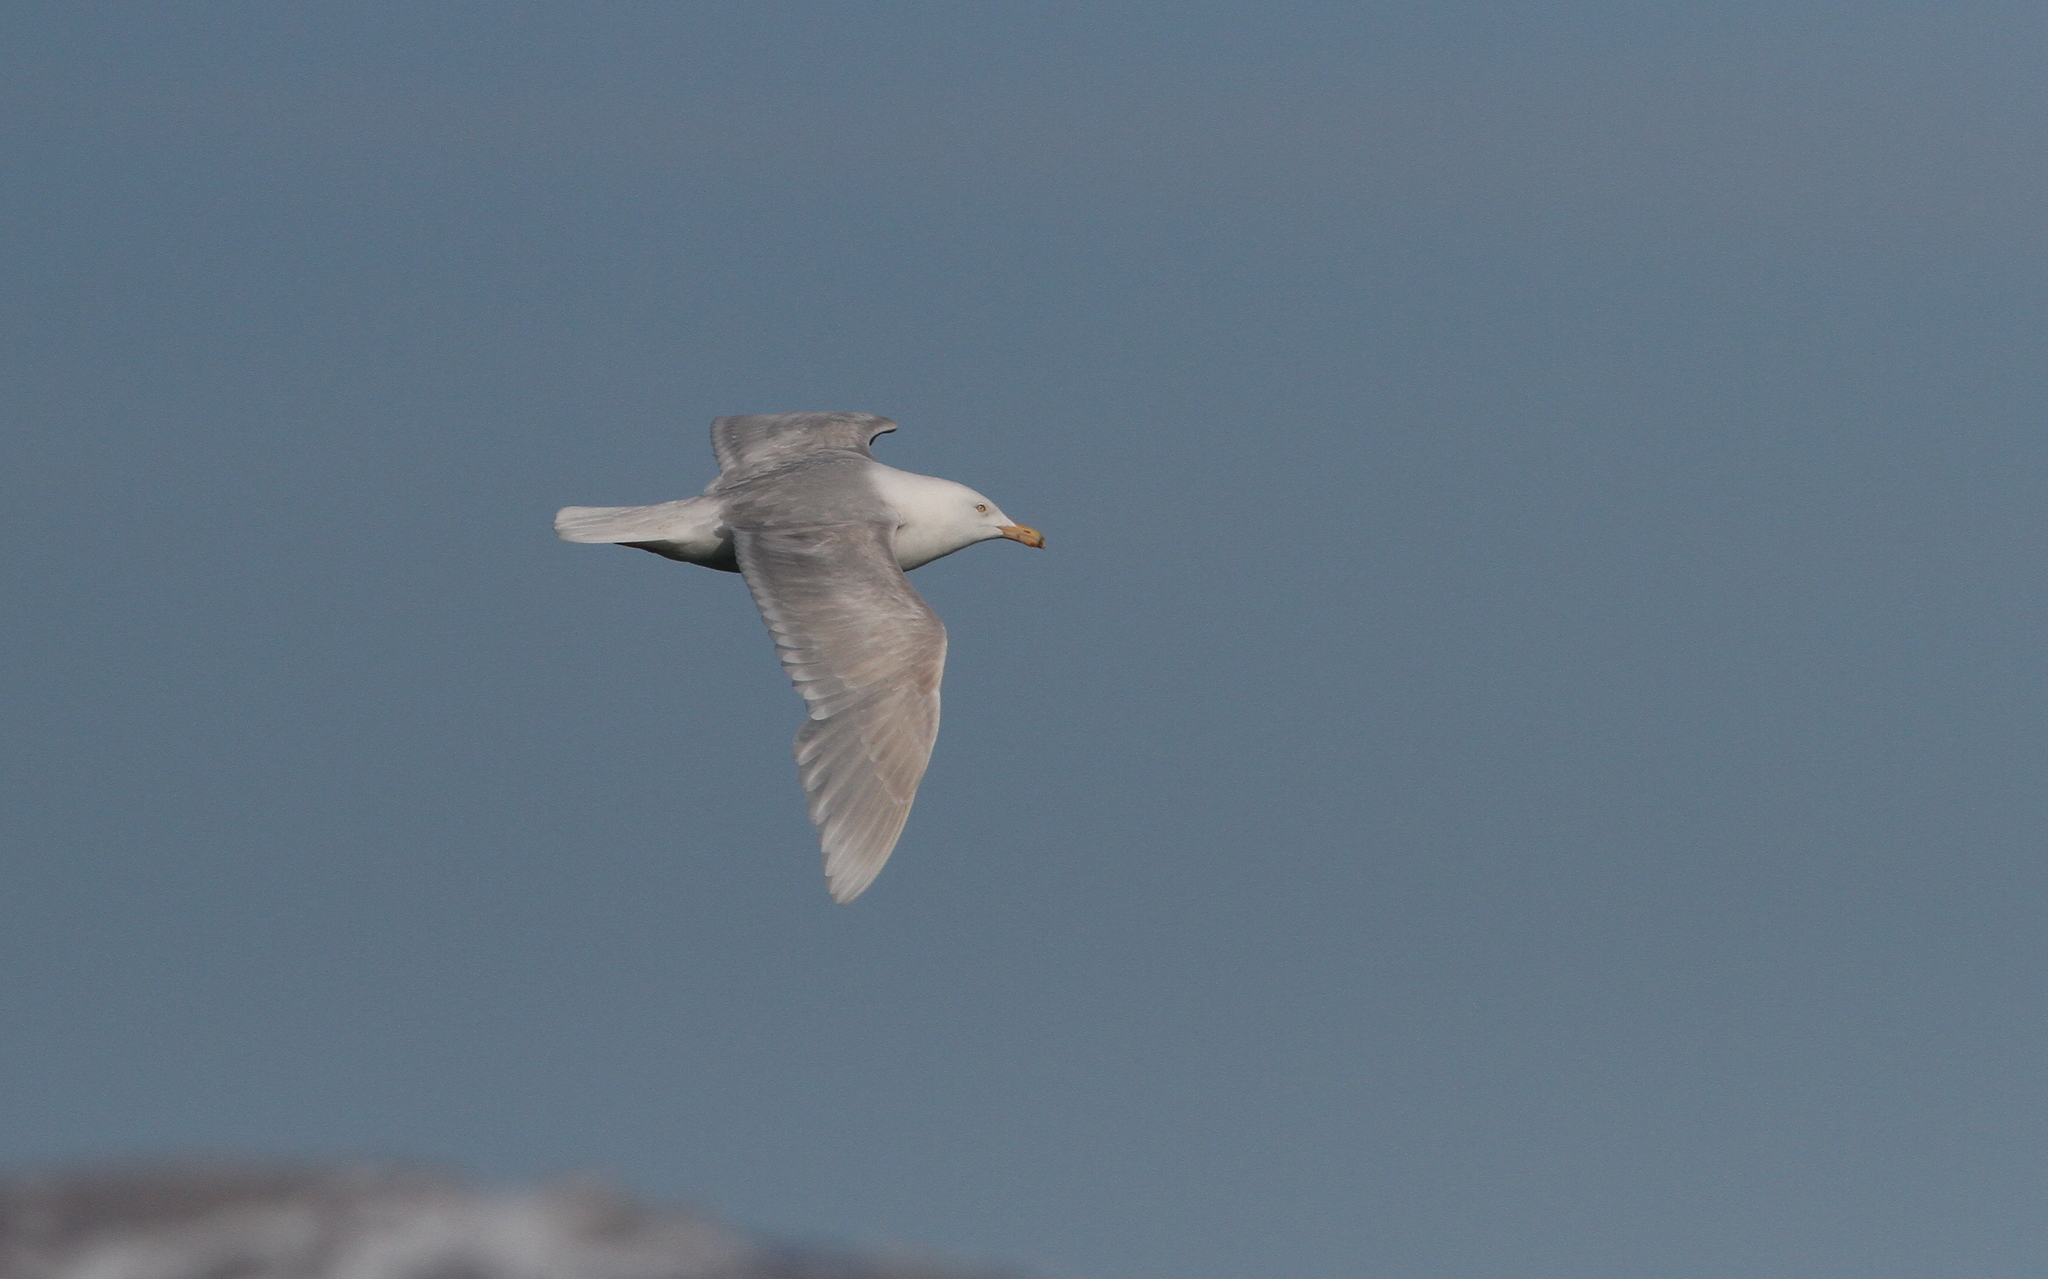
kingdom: Animalia
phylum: Chordata
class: Aves
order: Charadriiformes
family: Laridae
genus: Larus
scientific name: Larus hyperboreus
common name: Glaucous gull
